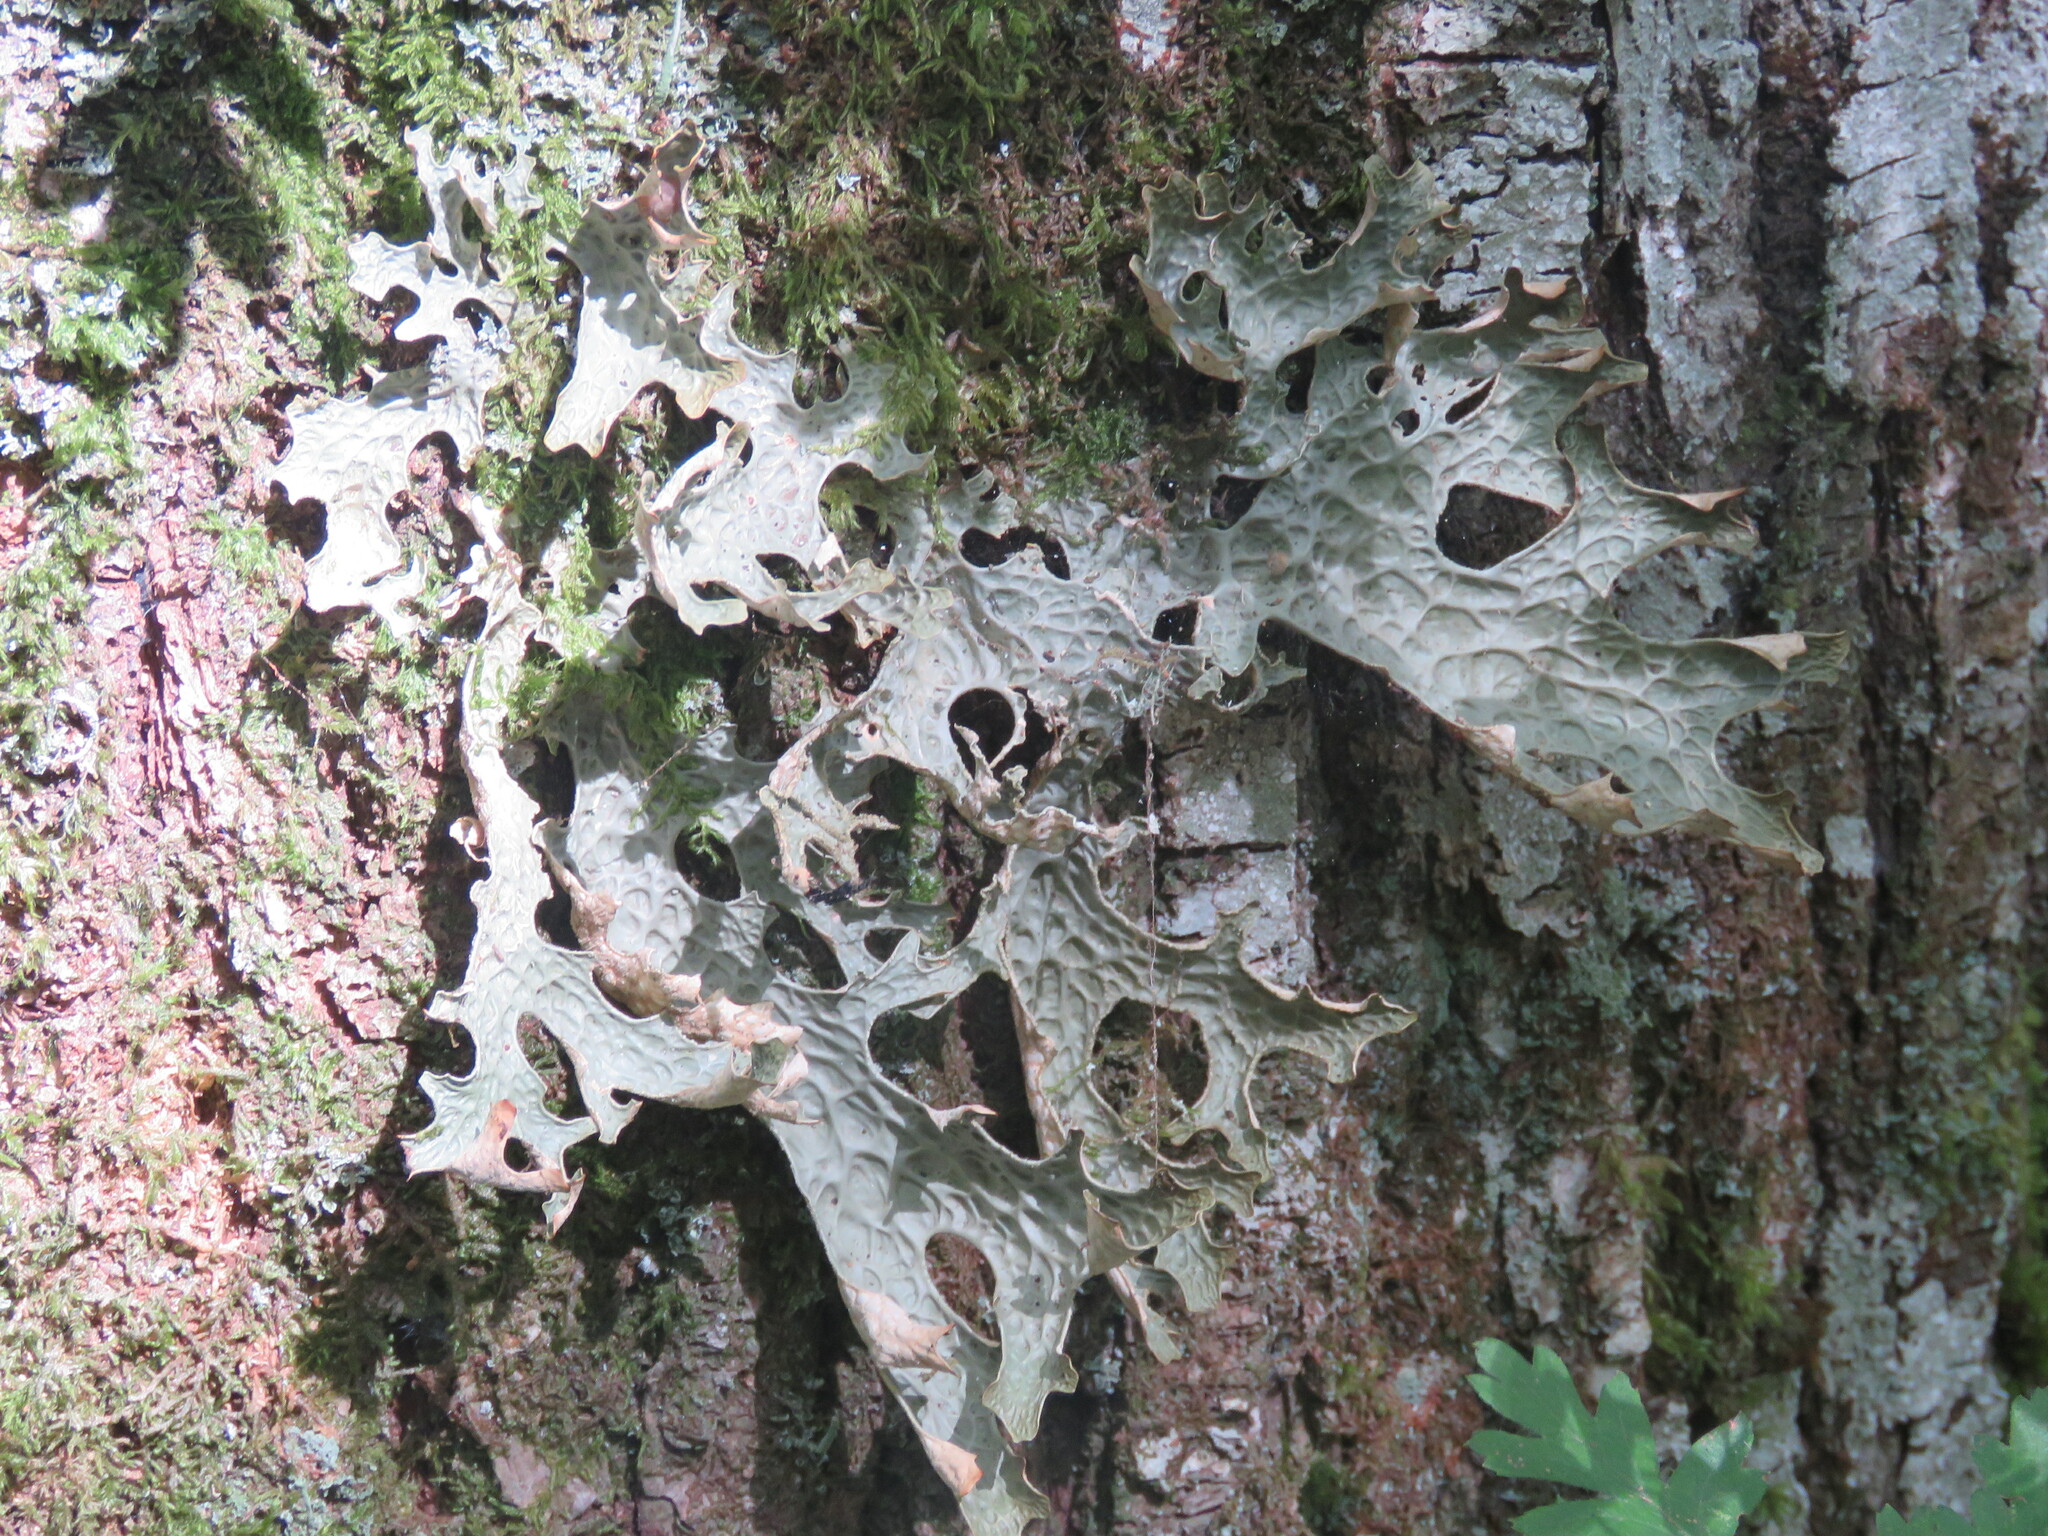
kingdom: Fungi
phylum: Ascomycota
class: Lecanoromycetes
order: Peltigerales
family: Lobariaceae
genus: Lobaria
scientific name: Lobaria pulmonaria
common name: Lungwort
